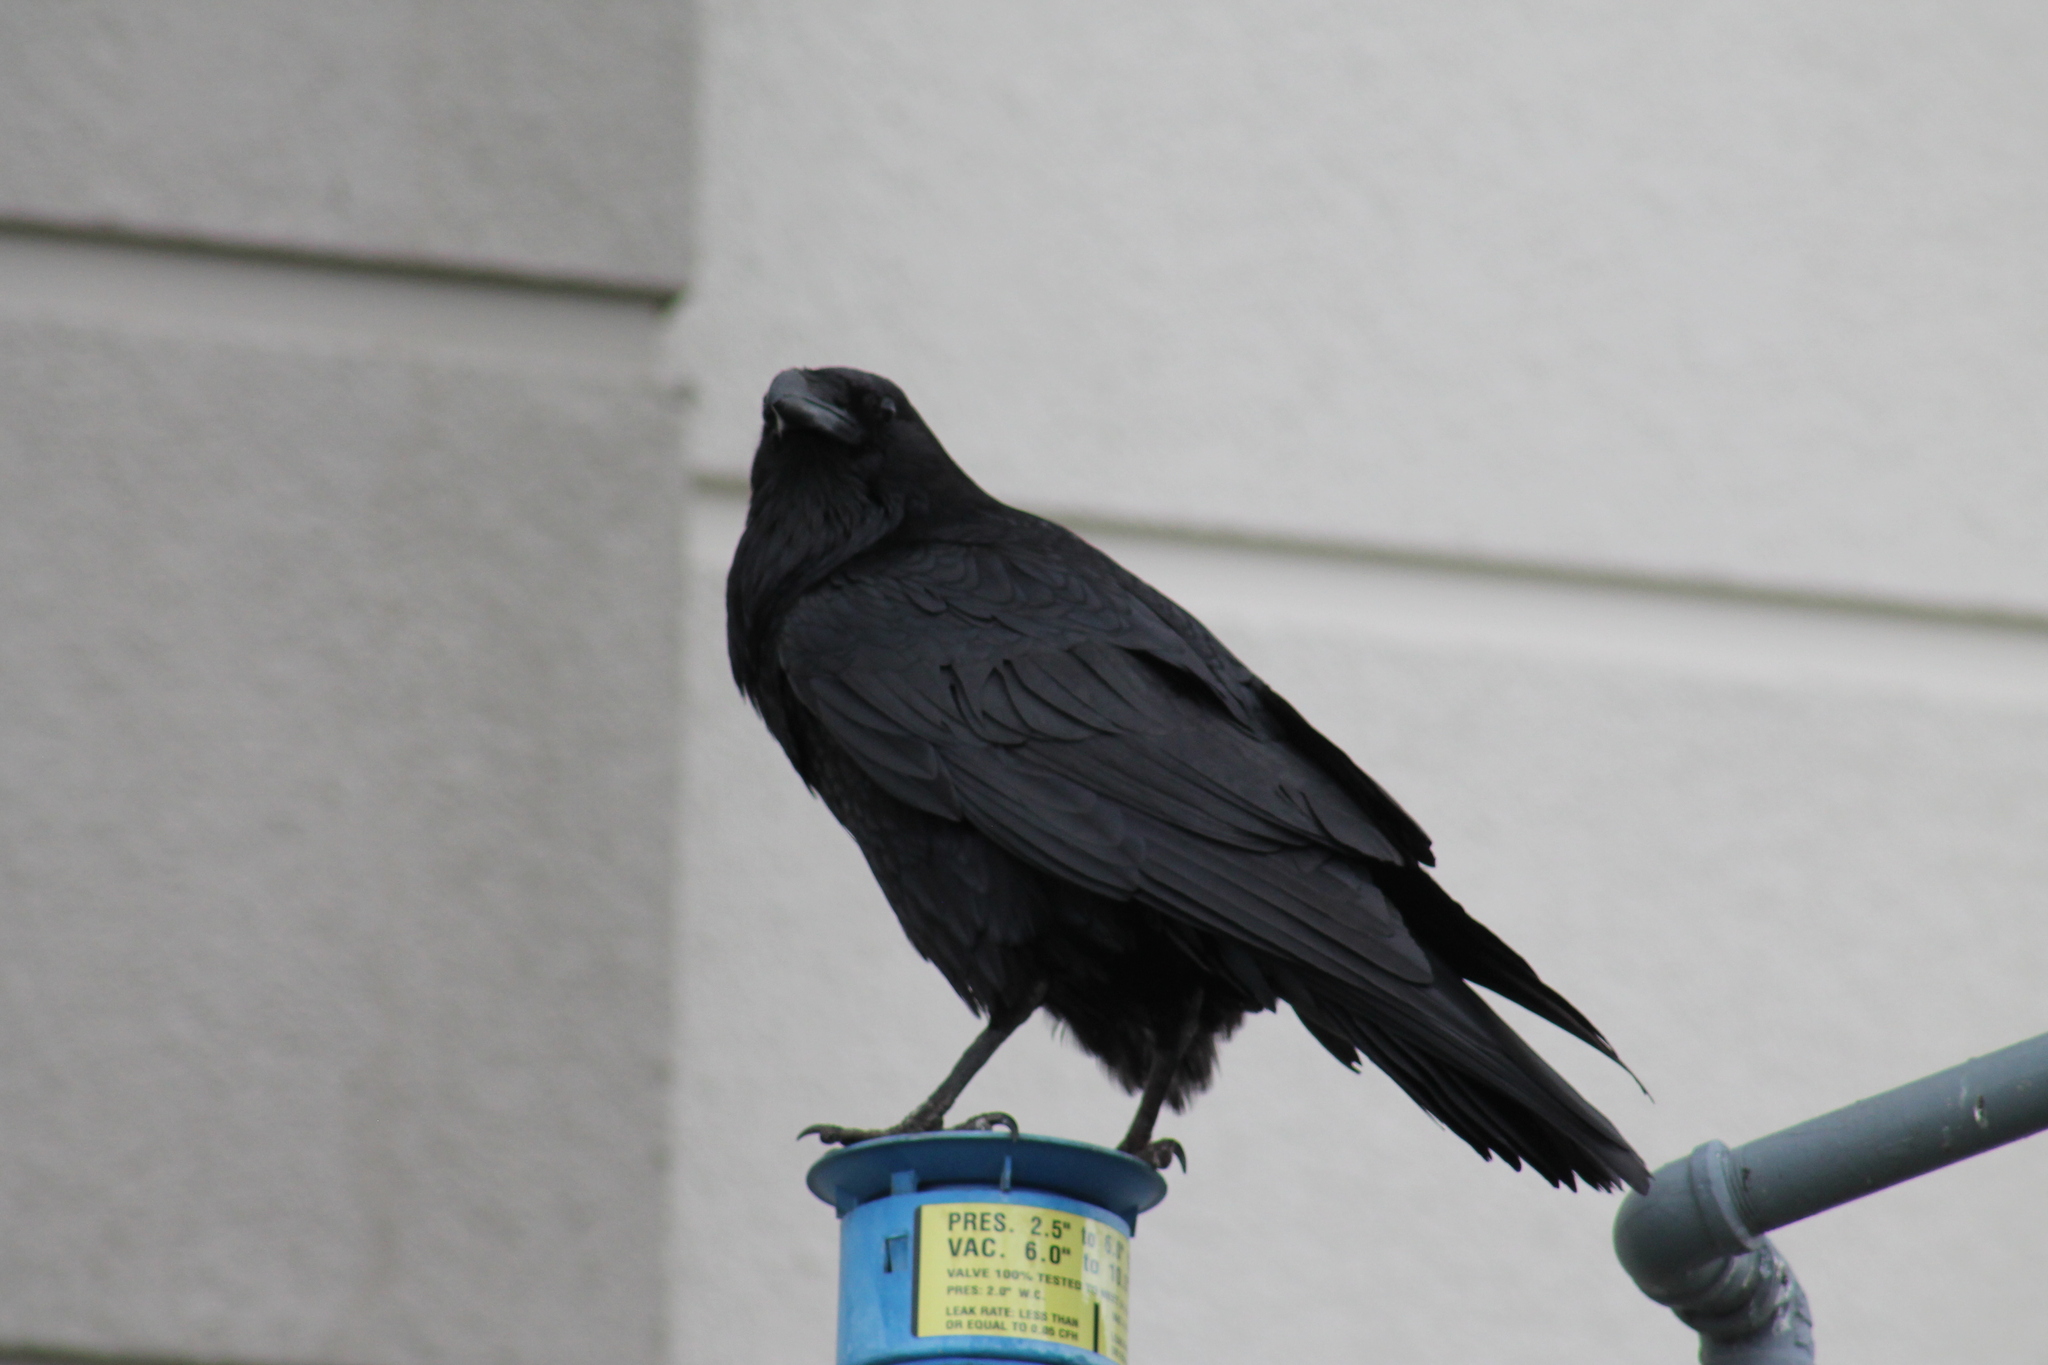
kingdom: Animalia
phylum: Chordata
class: Aves
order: Passeriformes
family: Corvidae
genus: Corvus
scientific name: Corvus corax
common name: Common raven
